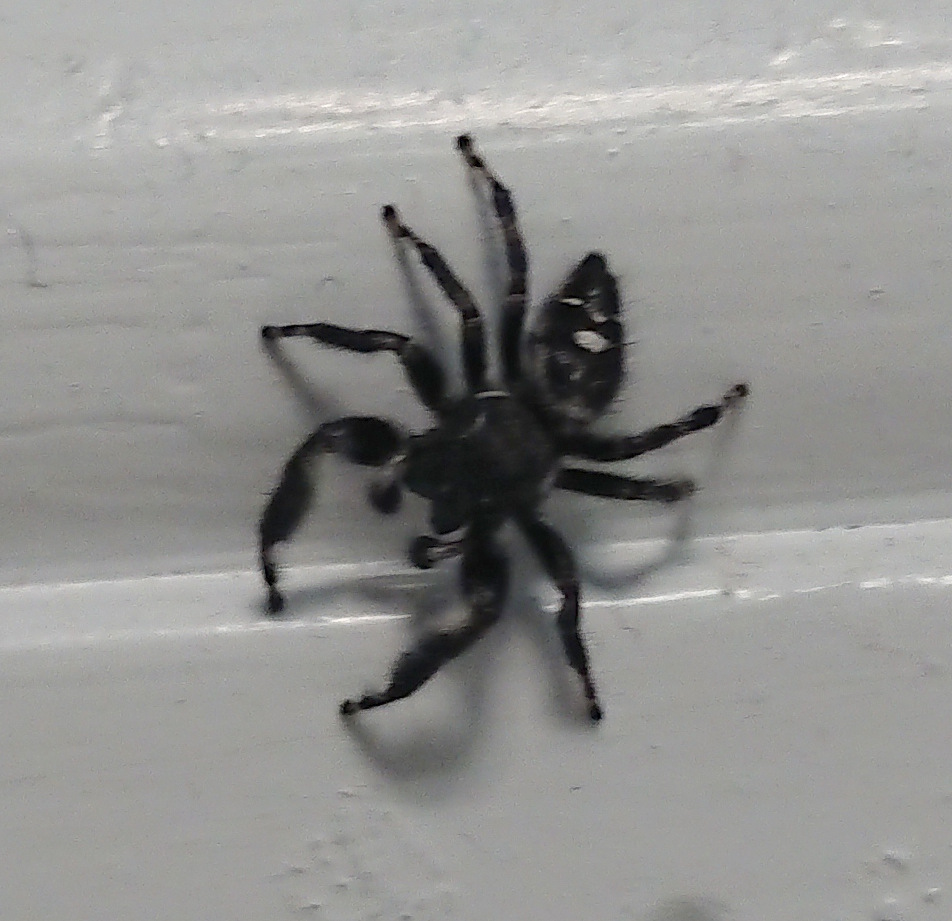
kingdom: Animalia
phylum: Arthropoda
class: Arachnida
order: Araneae
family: Salticidae
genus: Phidippus
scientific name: Phidippus audax
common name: Bold jumper
